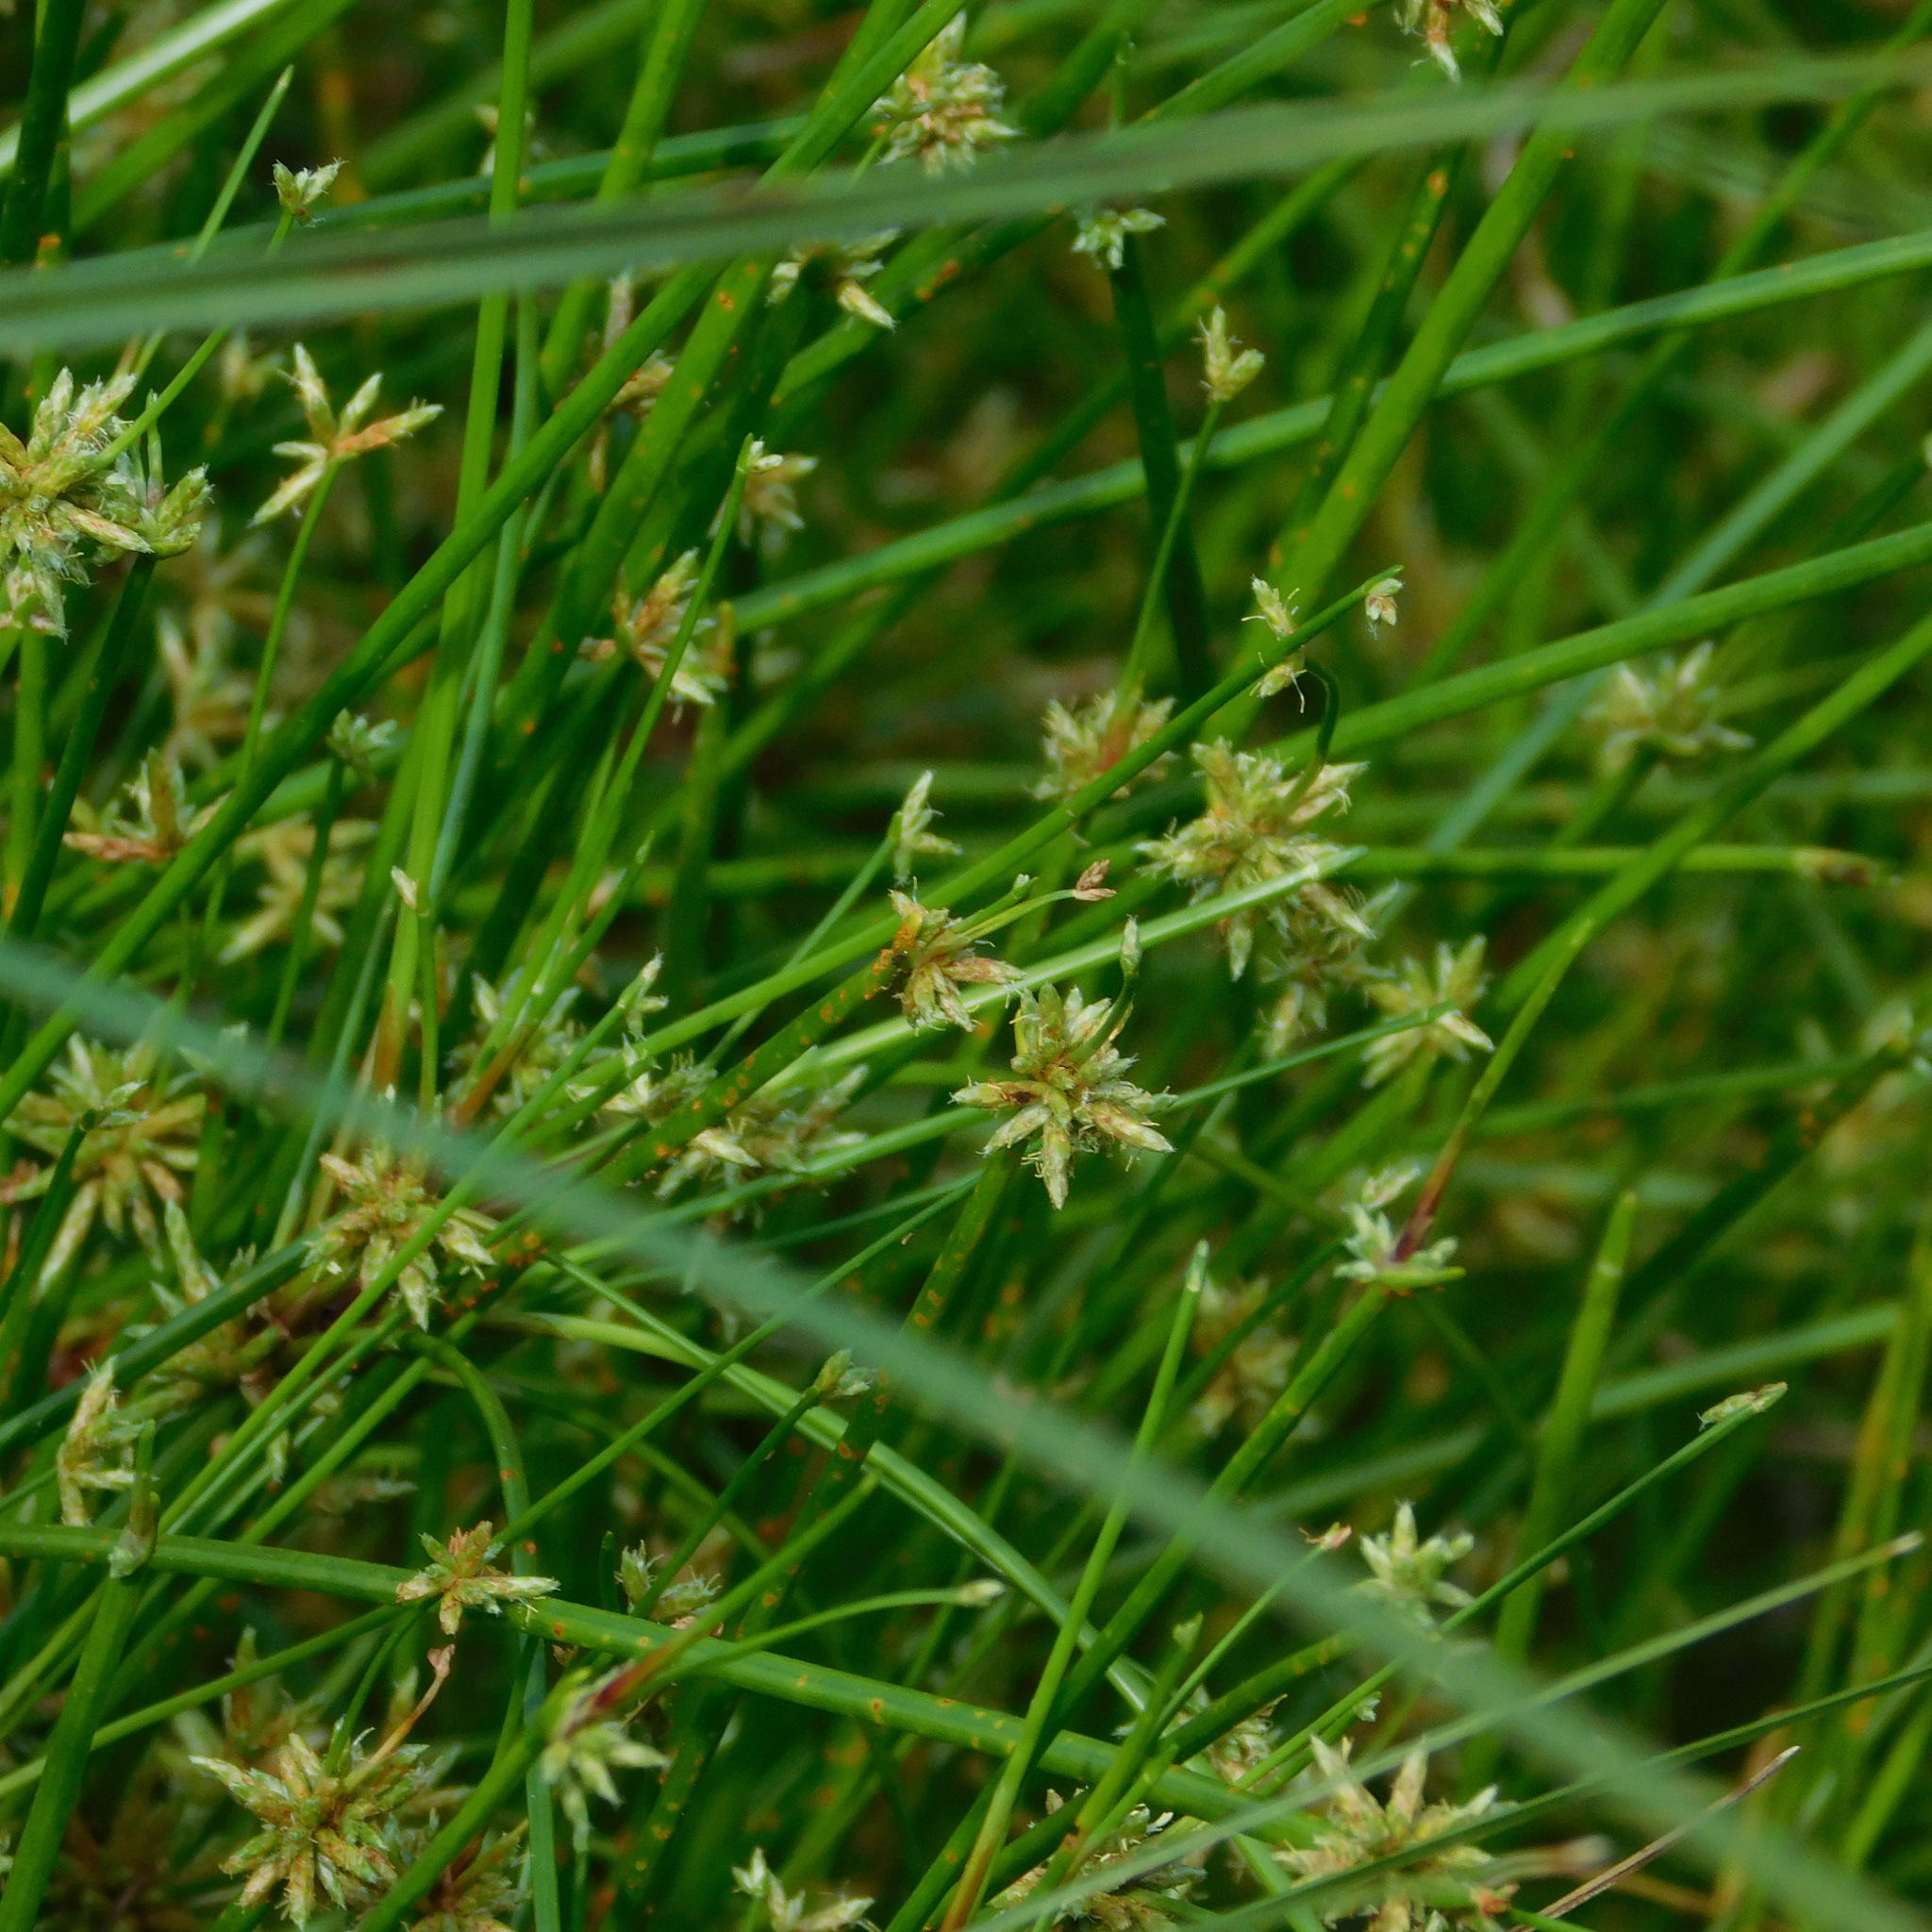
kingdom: Plantae
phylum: Tracheophyta
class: Liliopsida
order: Poales
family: Cyperaceae
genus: Isolepis
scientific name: Isolepis prolifera
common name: Proliferating bulrush
